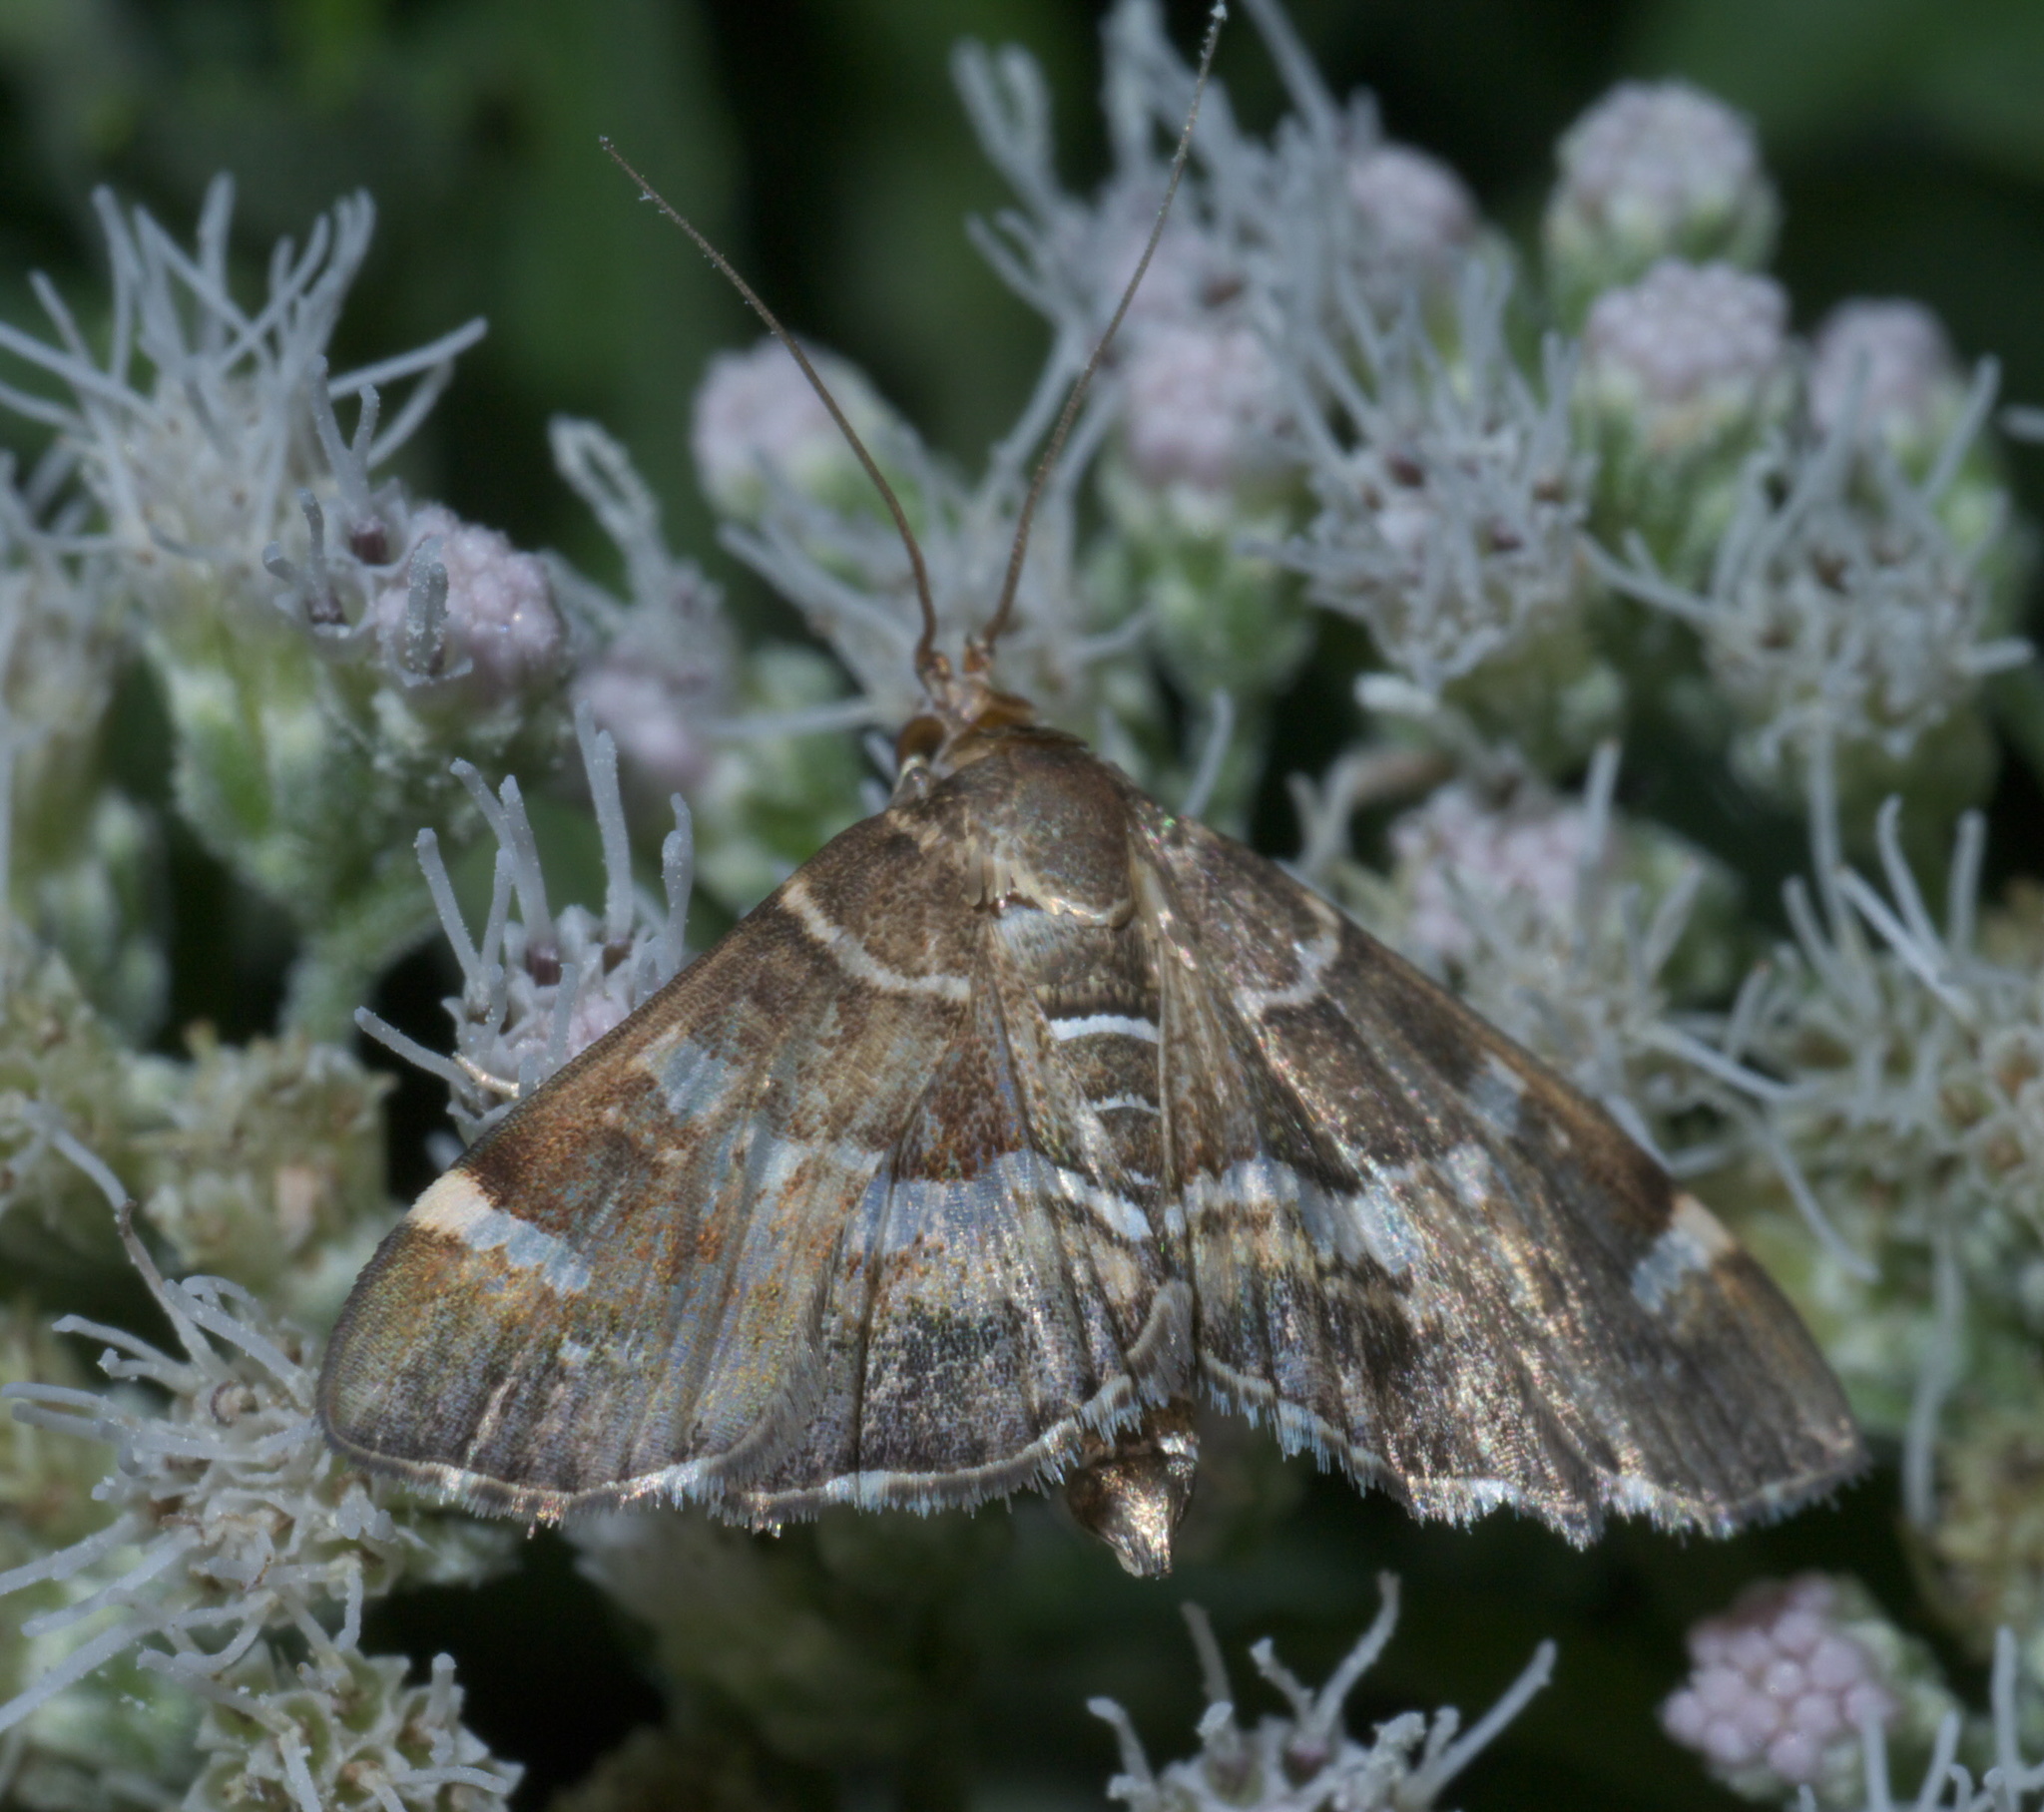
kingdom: Animalia
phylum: Arthropoda
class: Insecta
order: Lepidoptera
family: Crambidae
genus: Hymenia
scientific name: Hymenia perspectalis
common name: Spotted beet webworm
